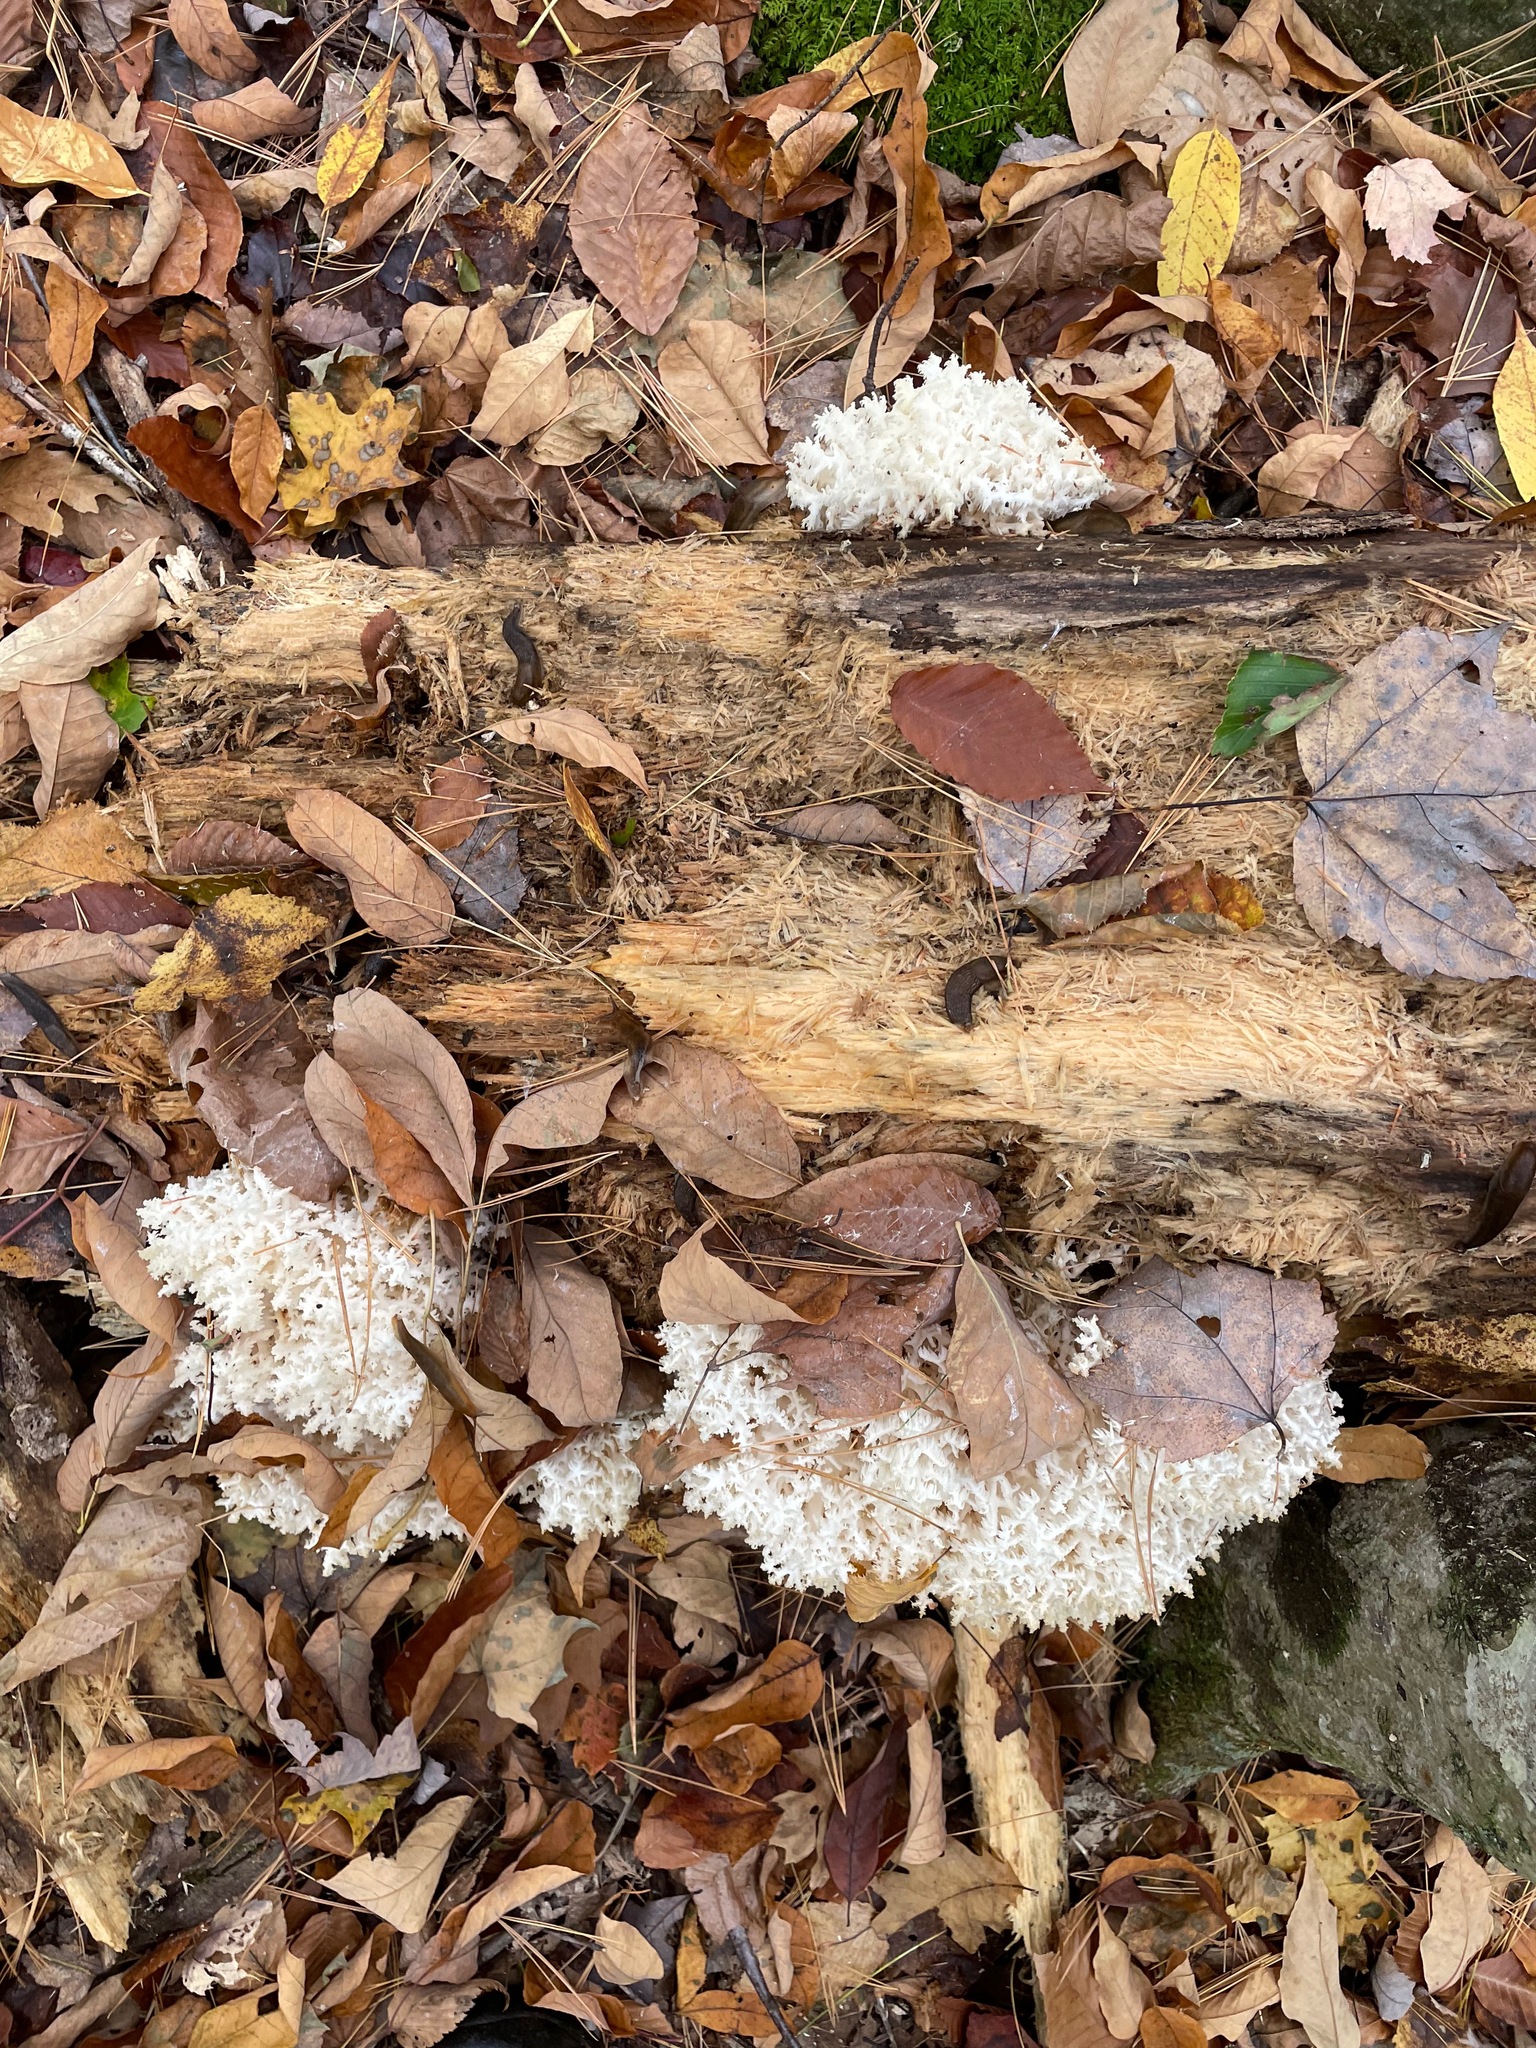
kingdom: Fungi
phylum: Basidiomycota
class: Agaricomycetes
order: Russulales
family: Hericiaceae
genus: Hericium
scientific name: Hericium coralloides
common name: Coral tooth
